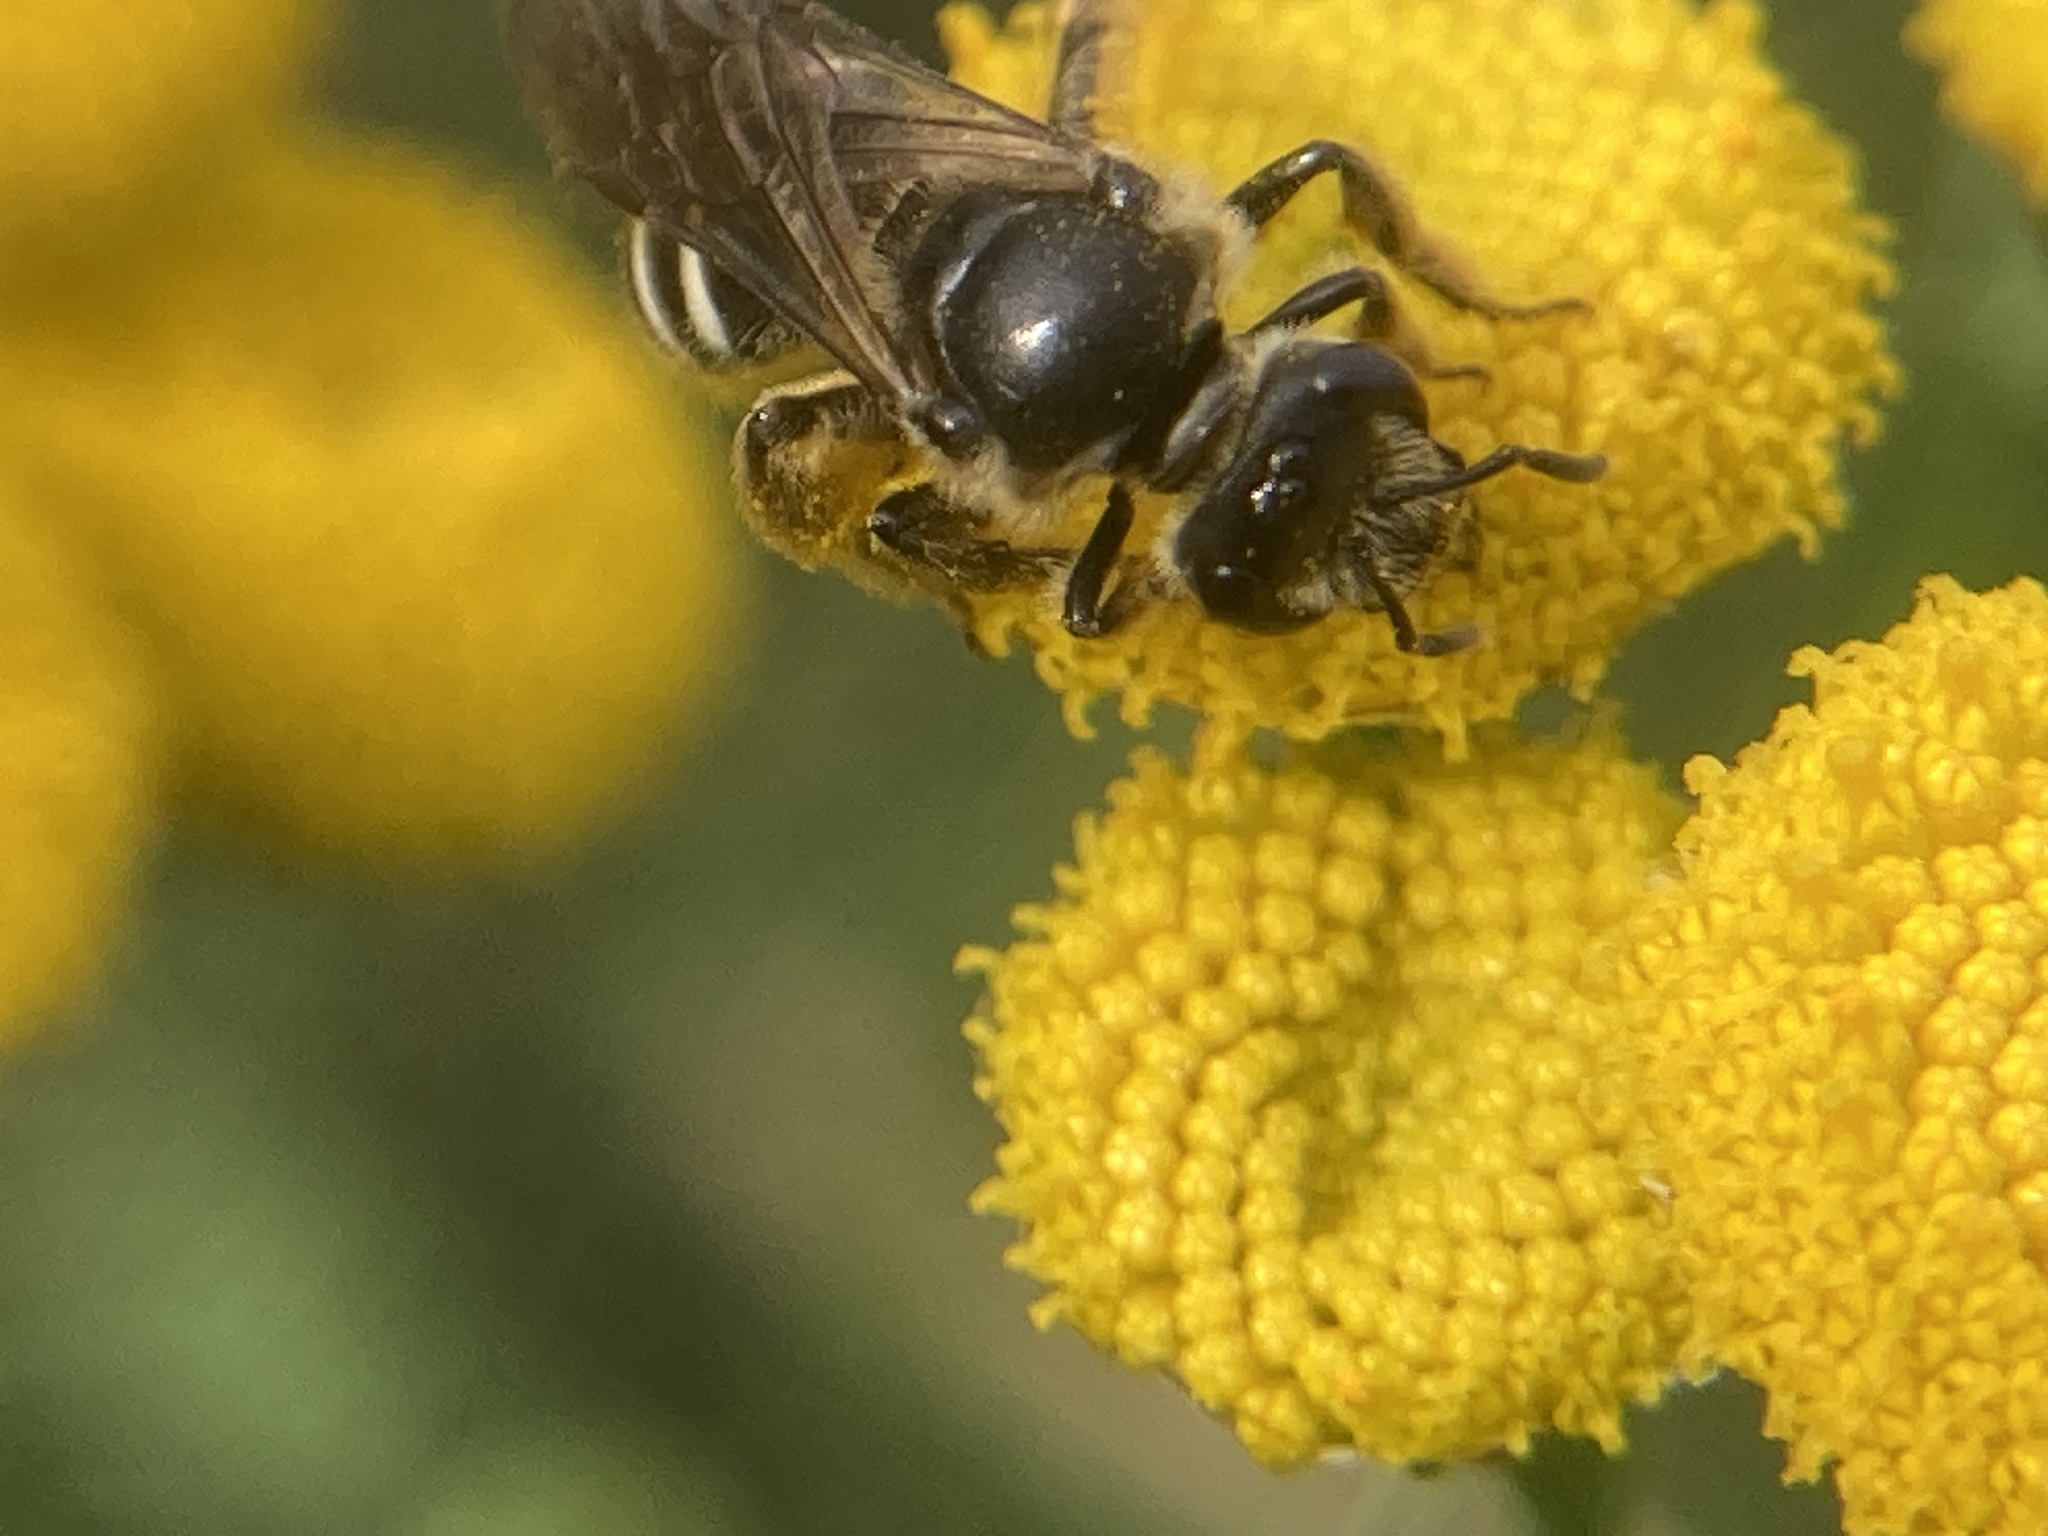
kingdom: Animalia
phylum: Arthropoda
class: Insecta
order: Hymenoptera
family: Halictidae
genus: Lasioglossum
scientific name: Lasioglossum
